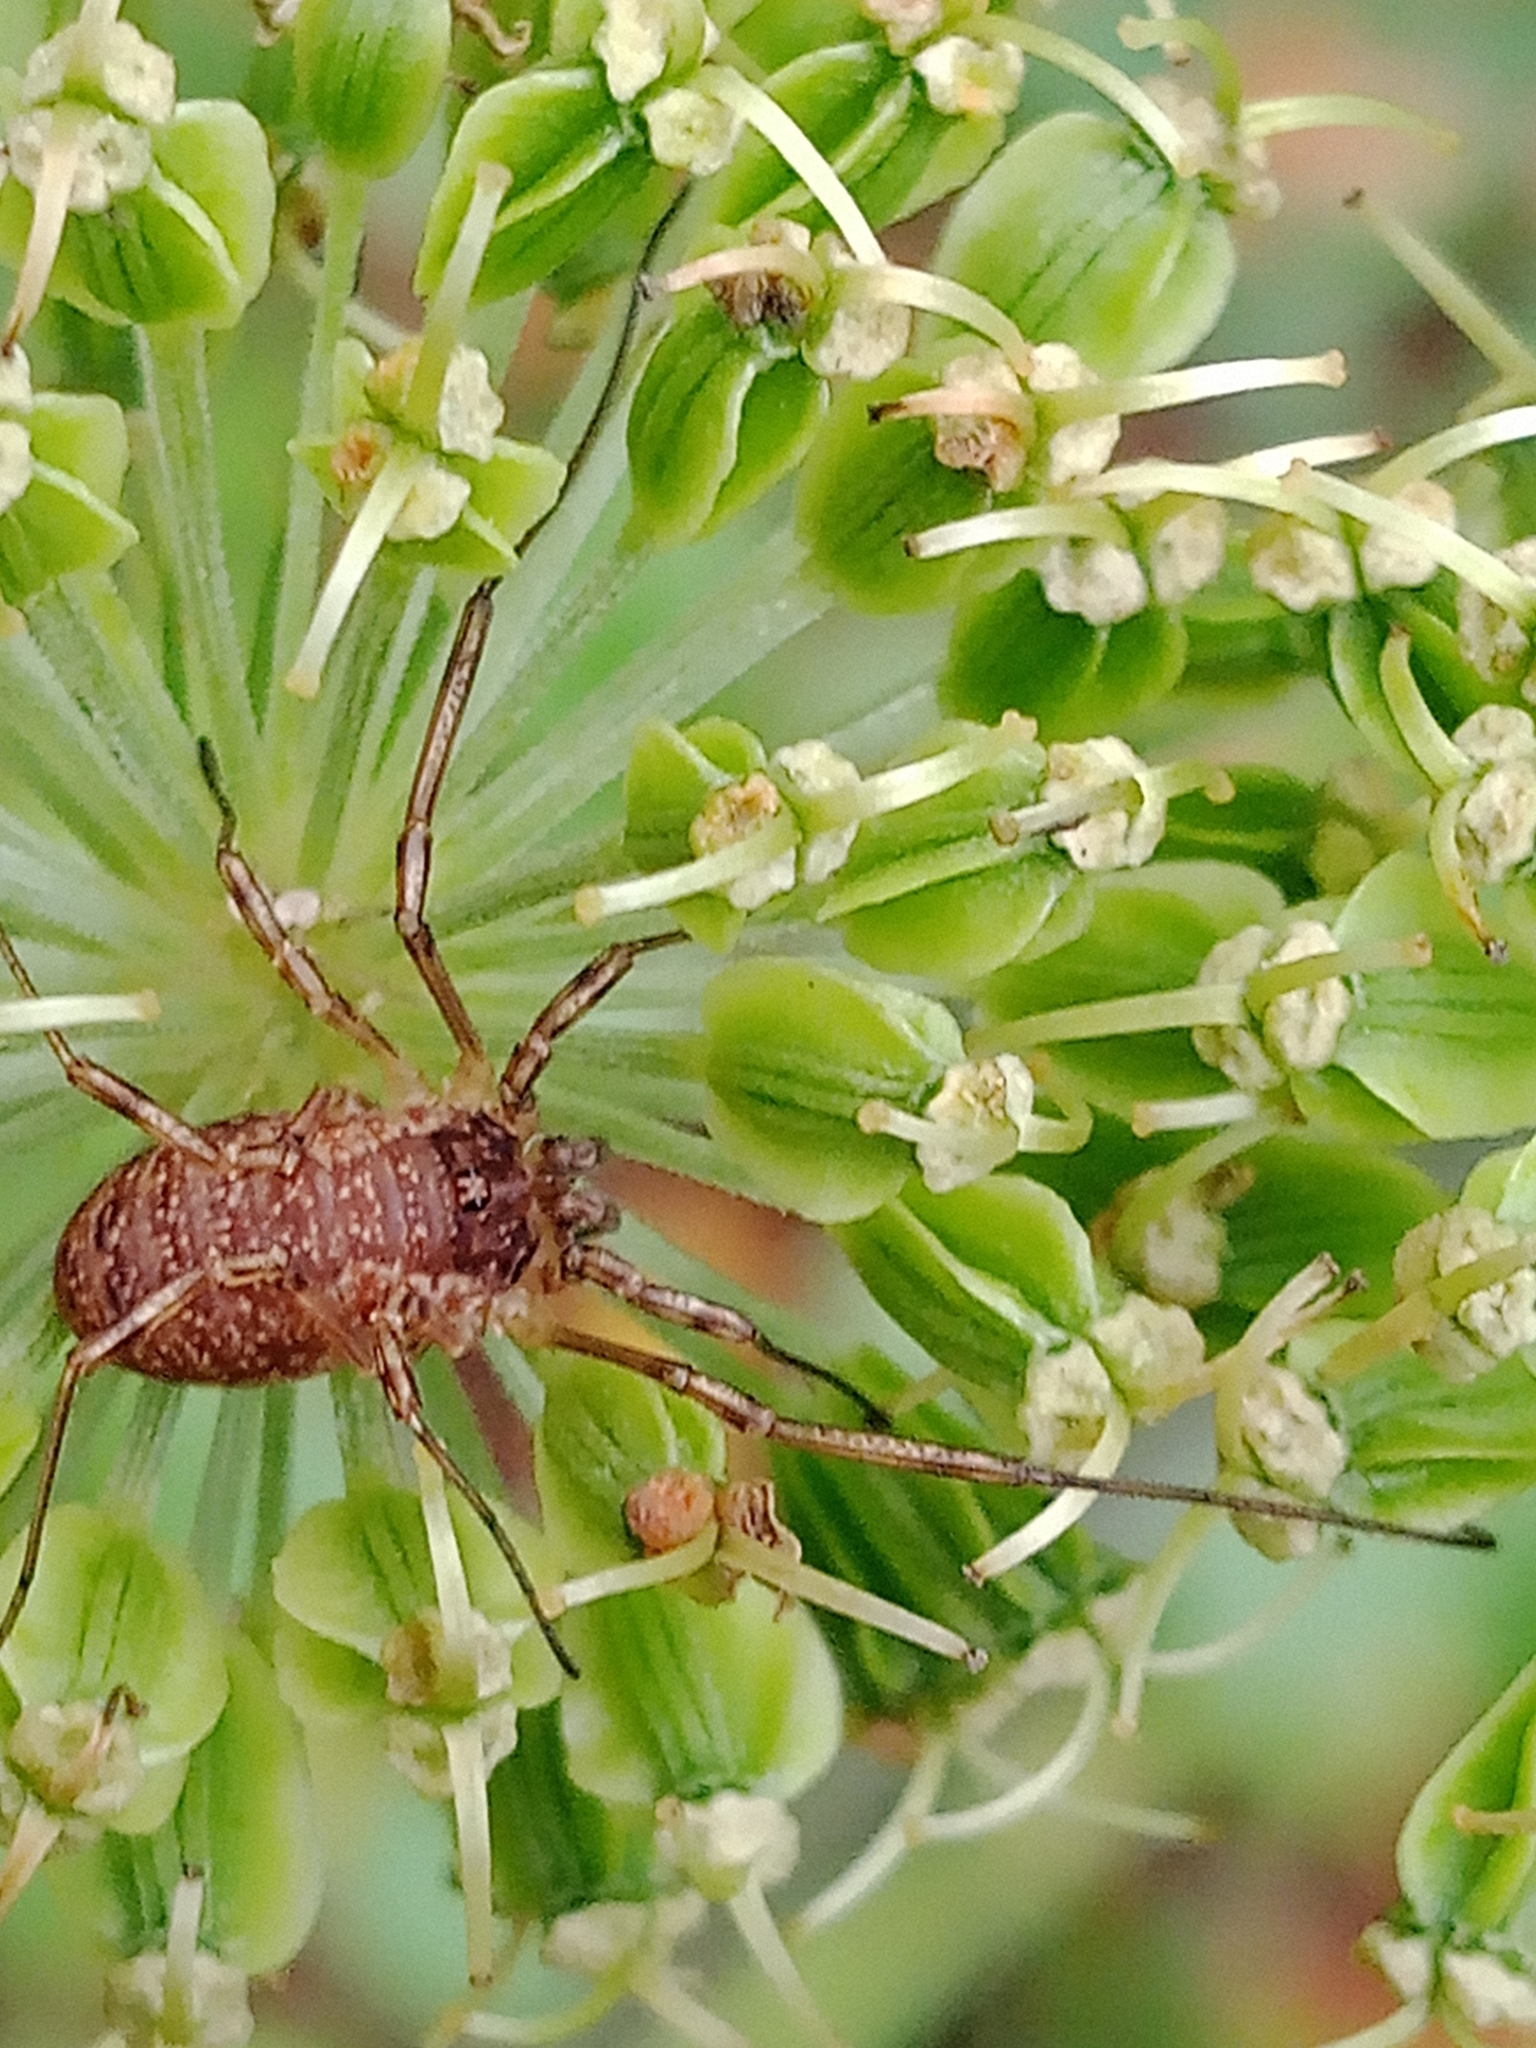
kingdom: Animalia
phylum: Arthropoda
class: Arachnida
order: Opiliones
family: Phalangiidae
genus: Oligolophus
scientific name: Oligolophus tridens
